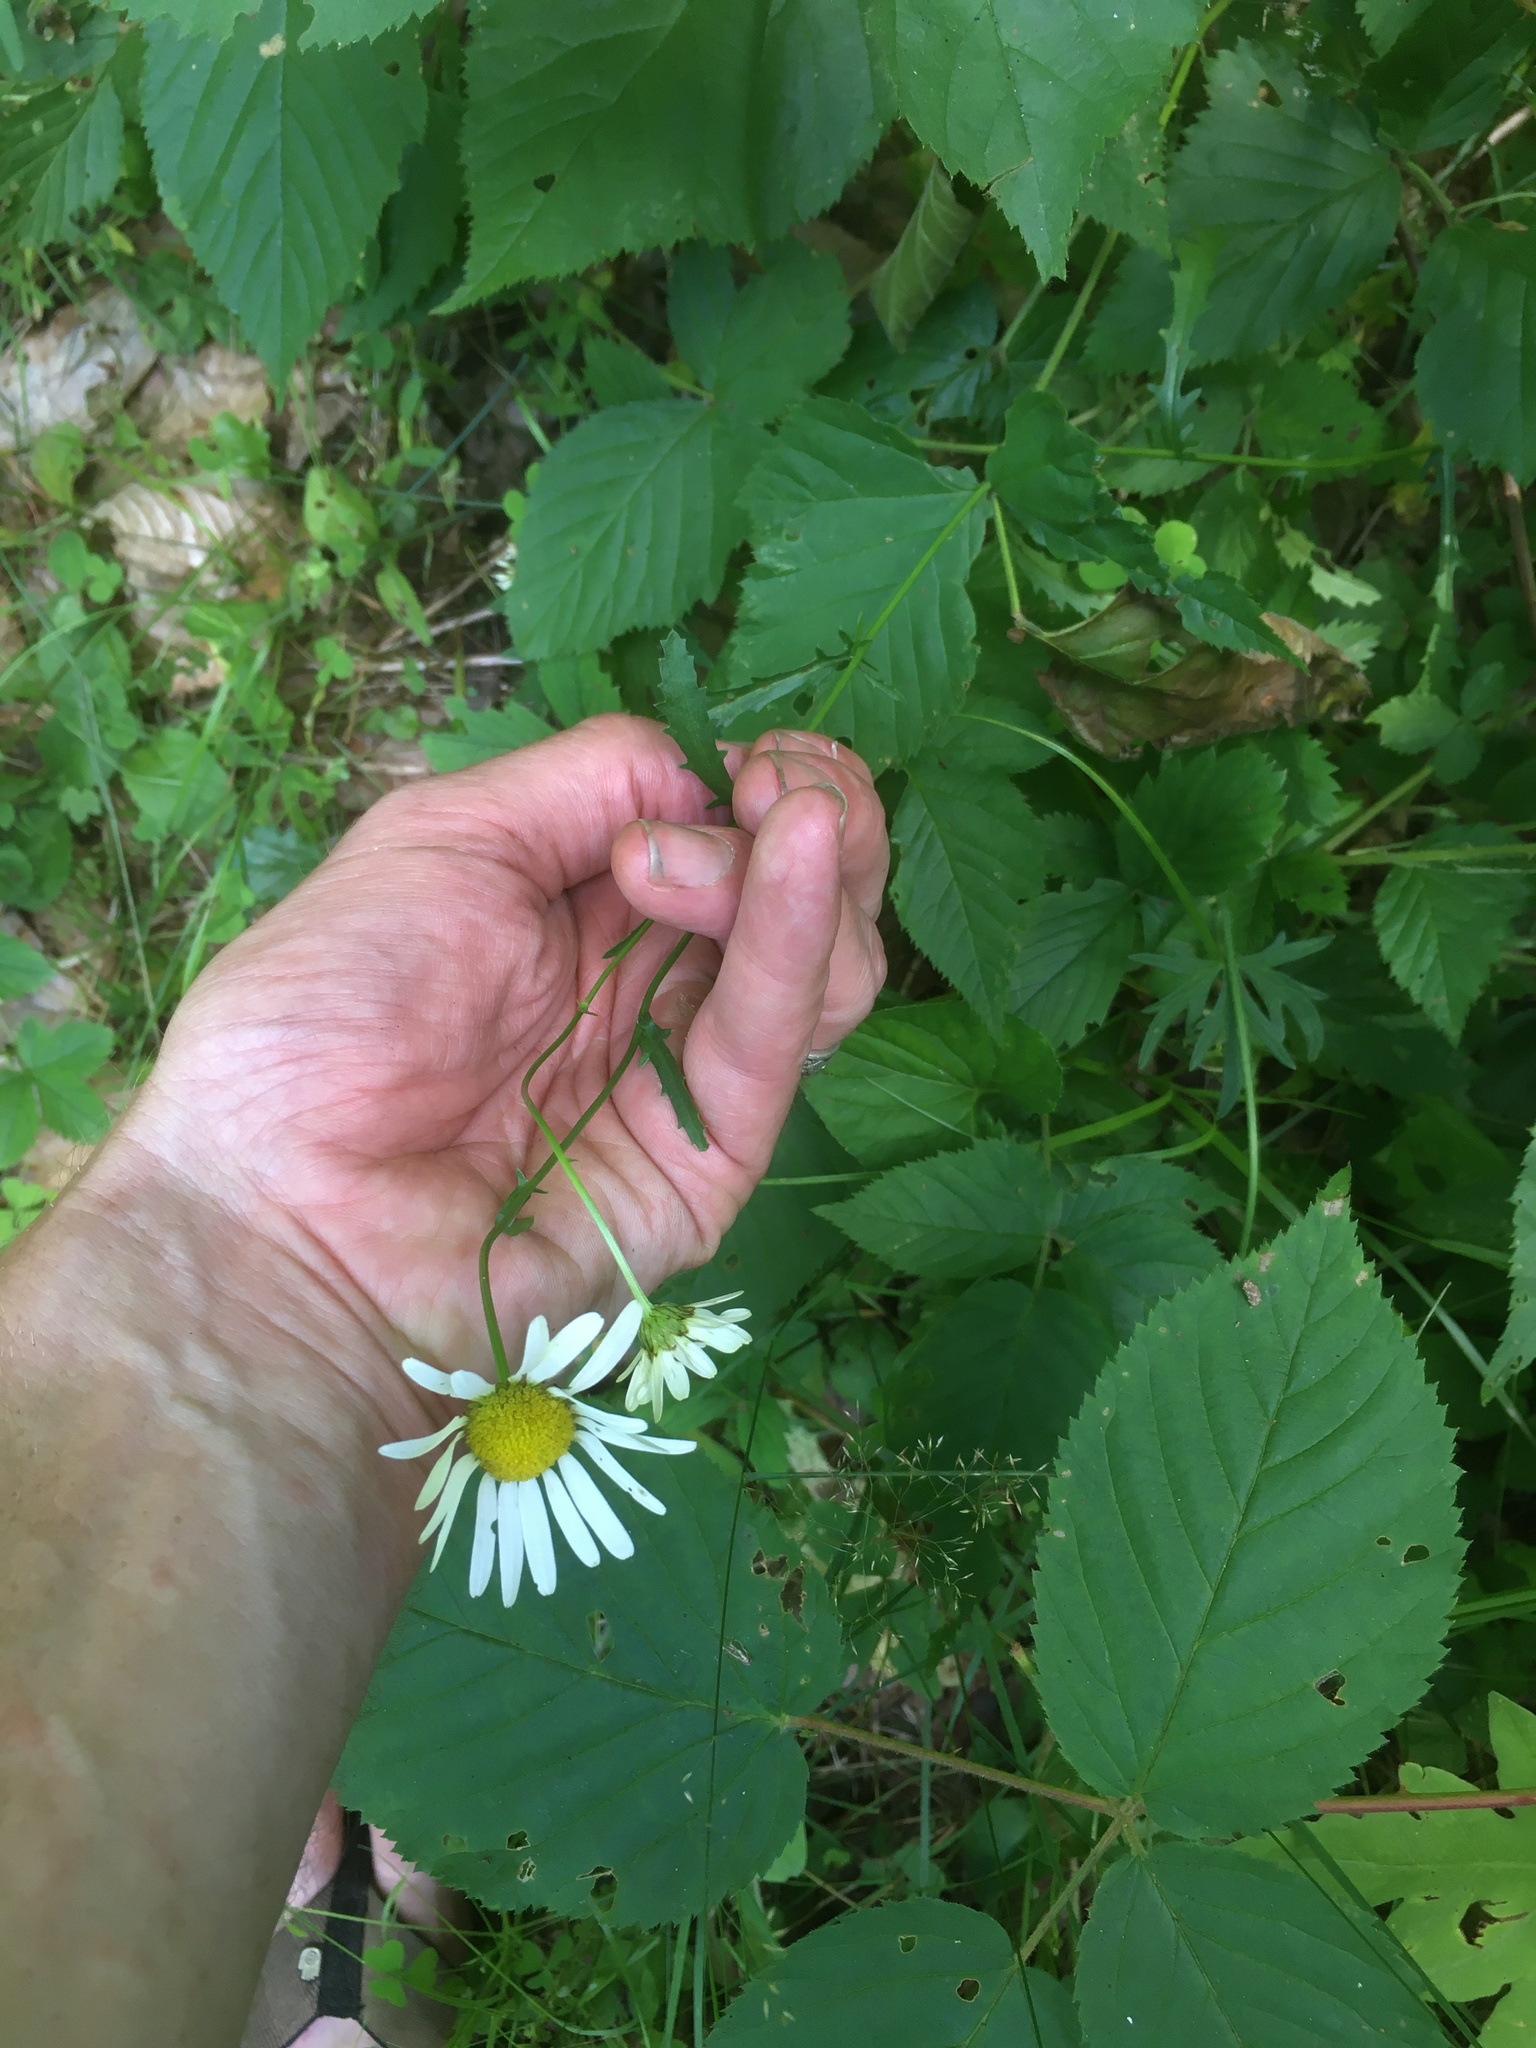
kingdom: Plantae
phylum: Tracheophyta
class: Magnoliopsida
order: Asterales
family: Asteraceae
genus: Leucanthemum
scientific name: Leucanthemum vulgare
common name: Oxeye daisy
